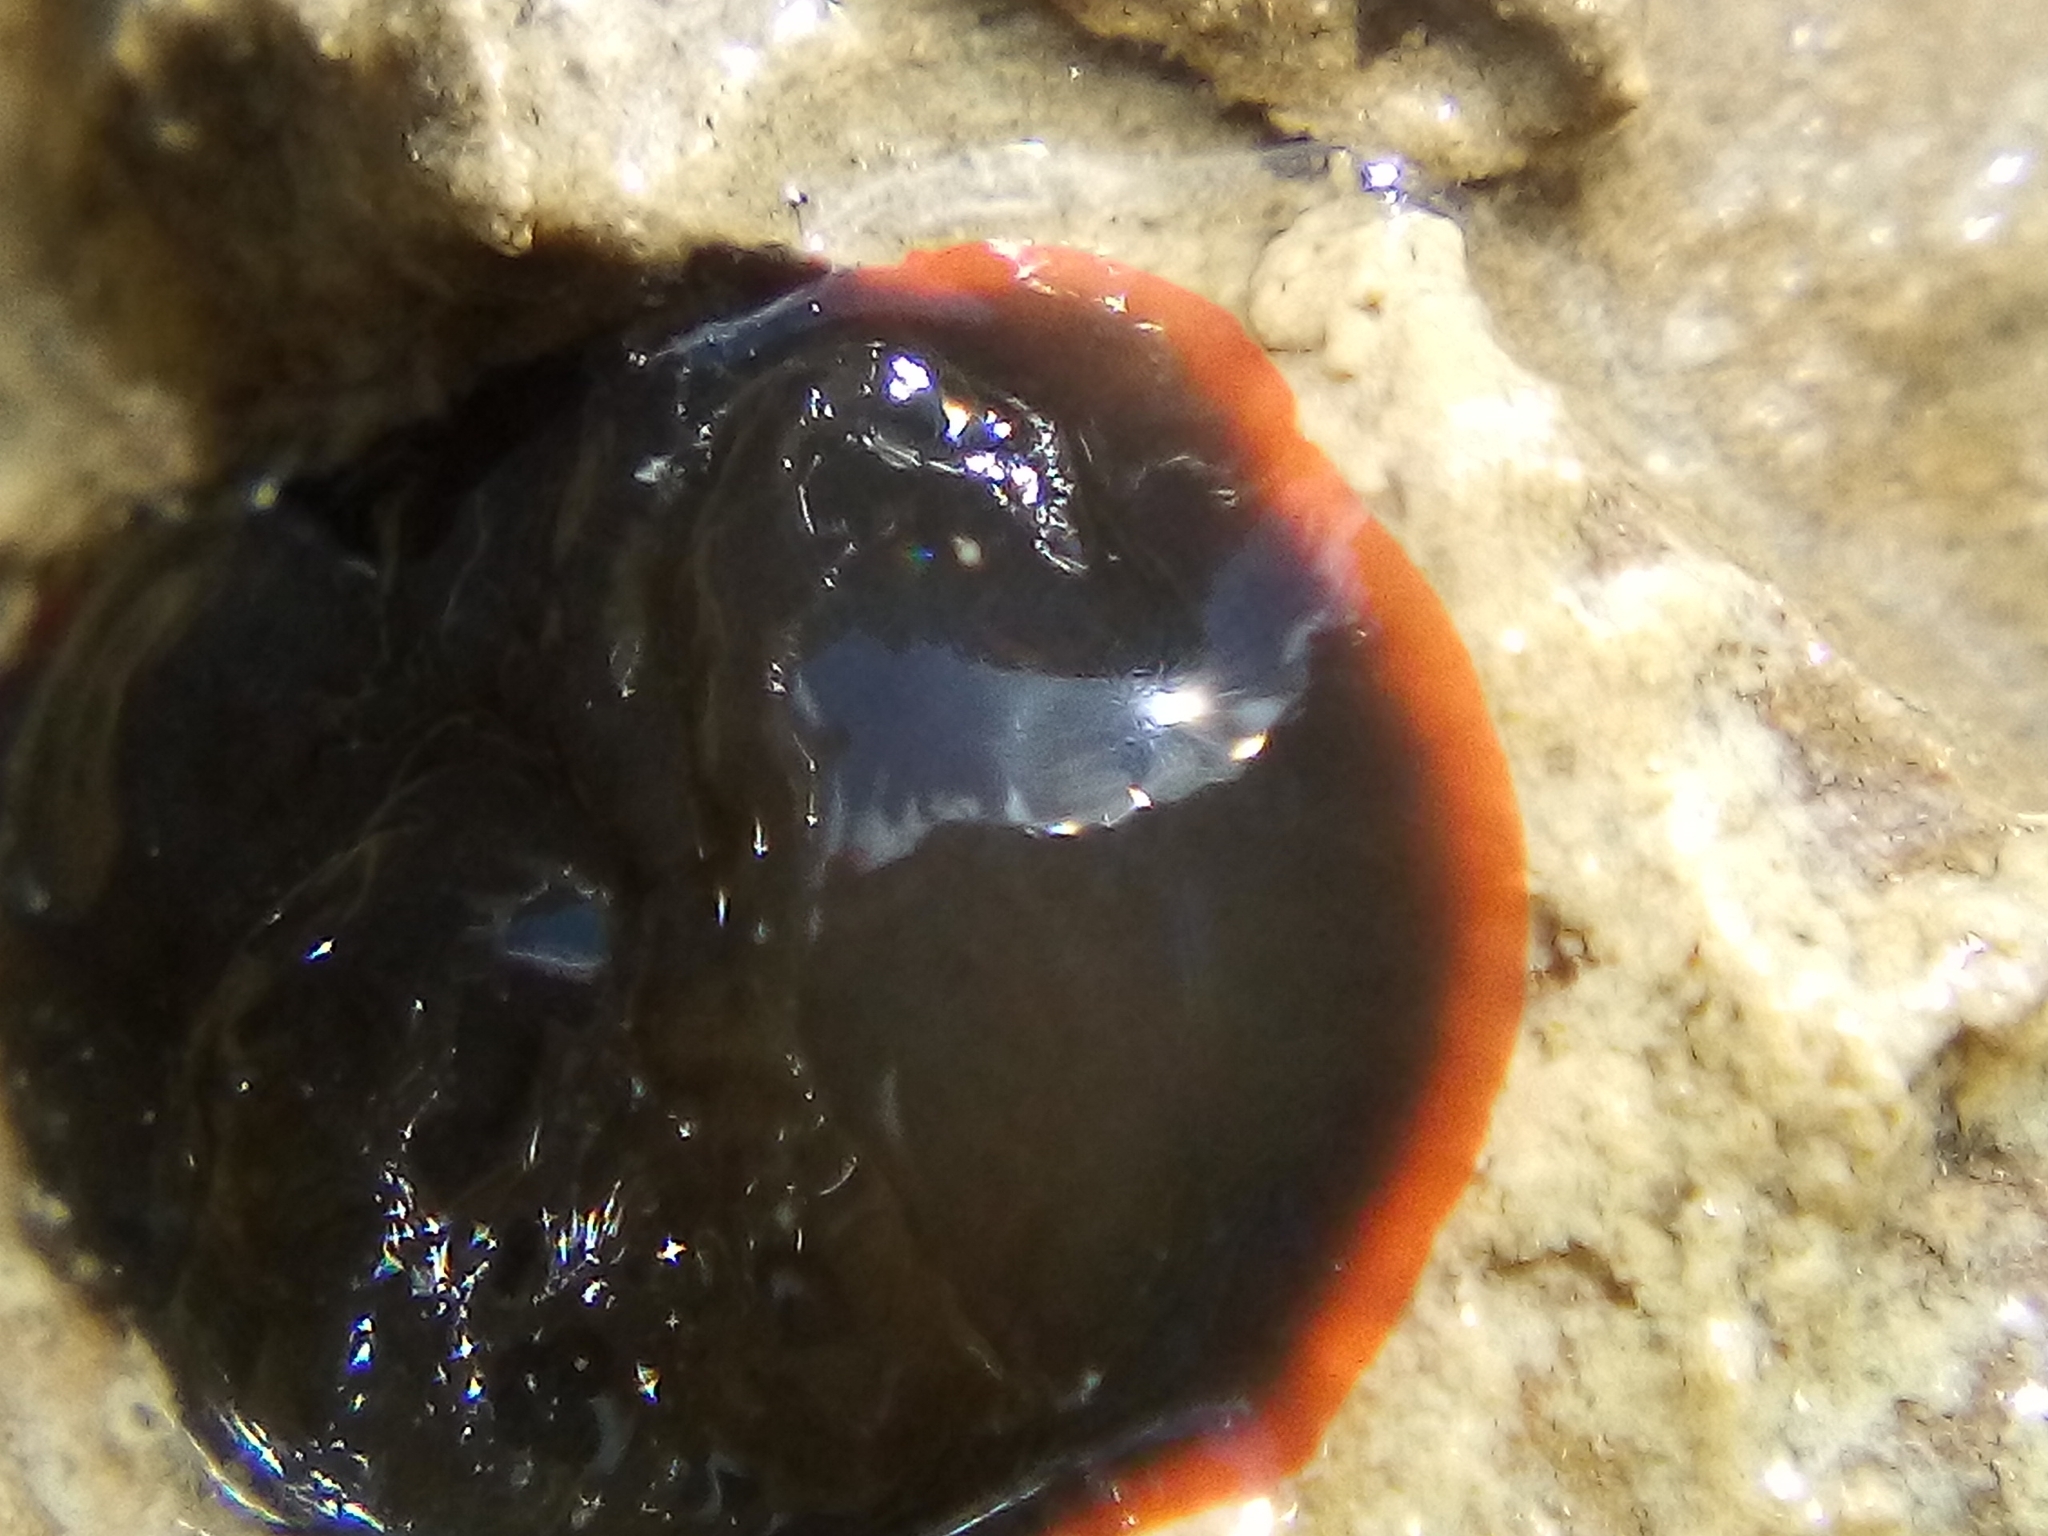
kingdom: Animalia
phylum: Mollusca
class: Gastropoda
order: Nudibranchia
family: Dendrodorididae
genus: Dendrodoris
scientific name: Dendrodoris nigra
